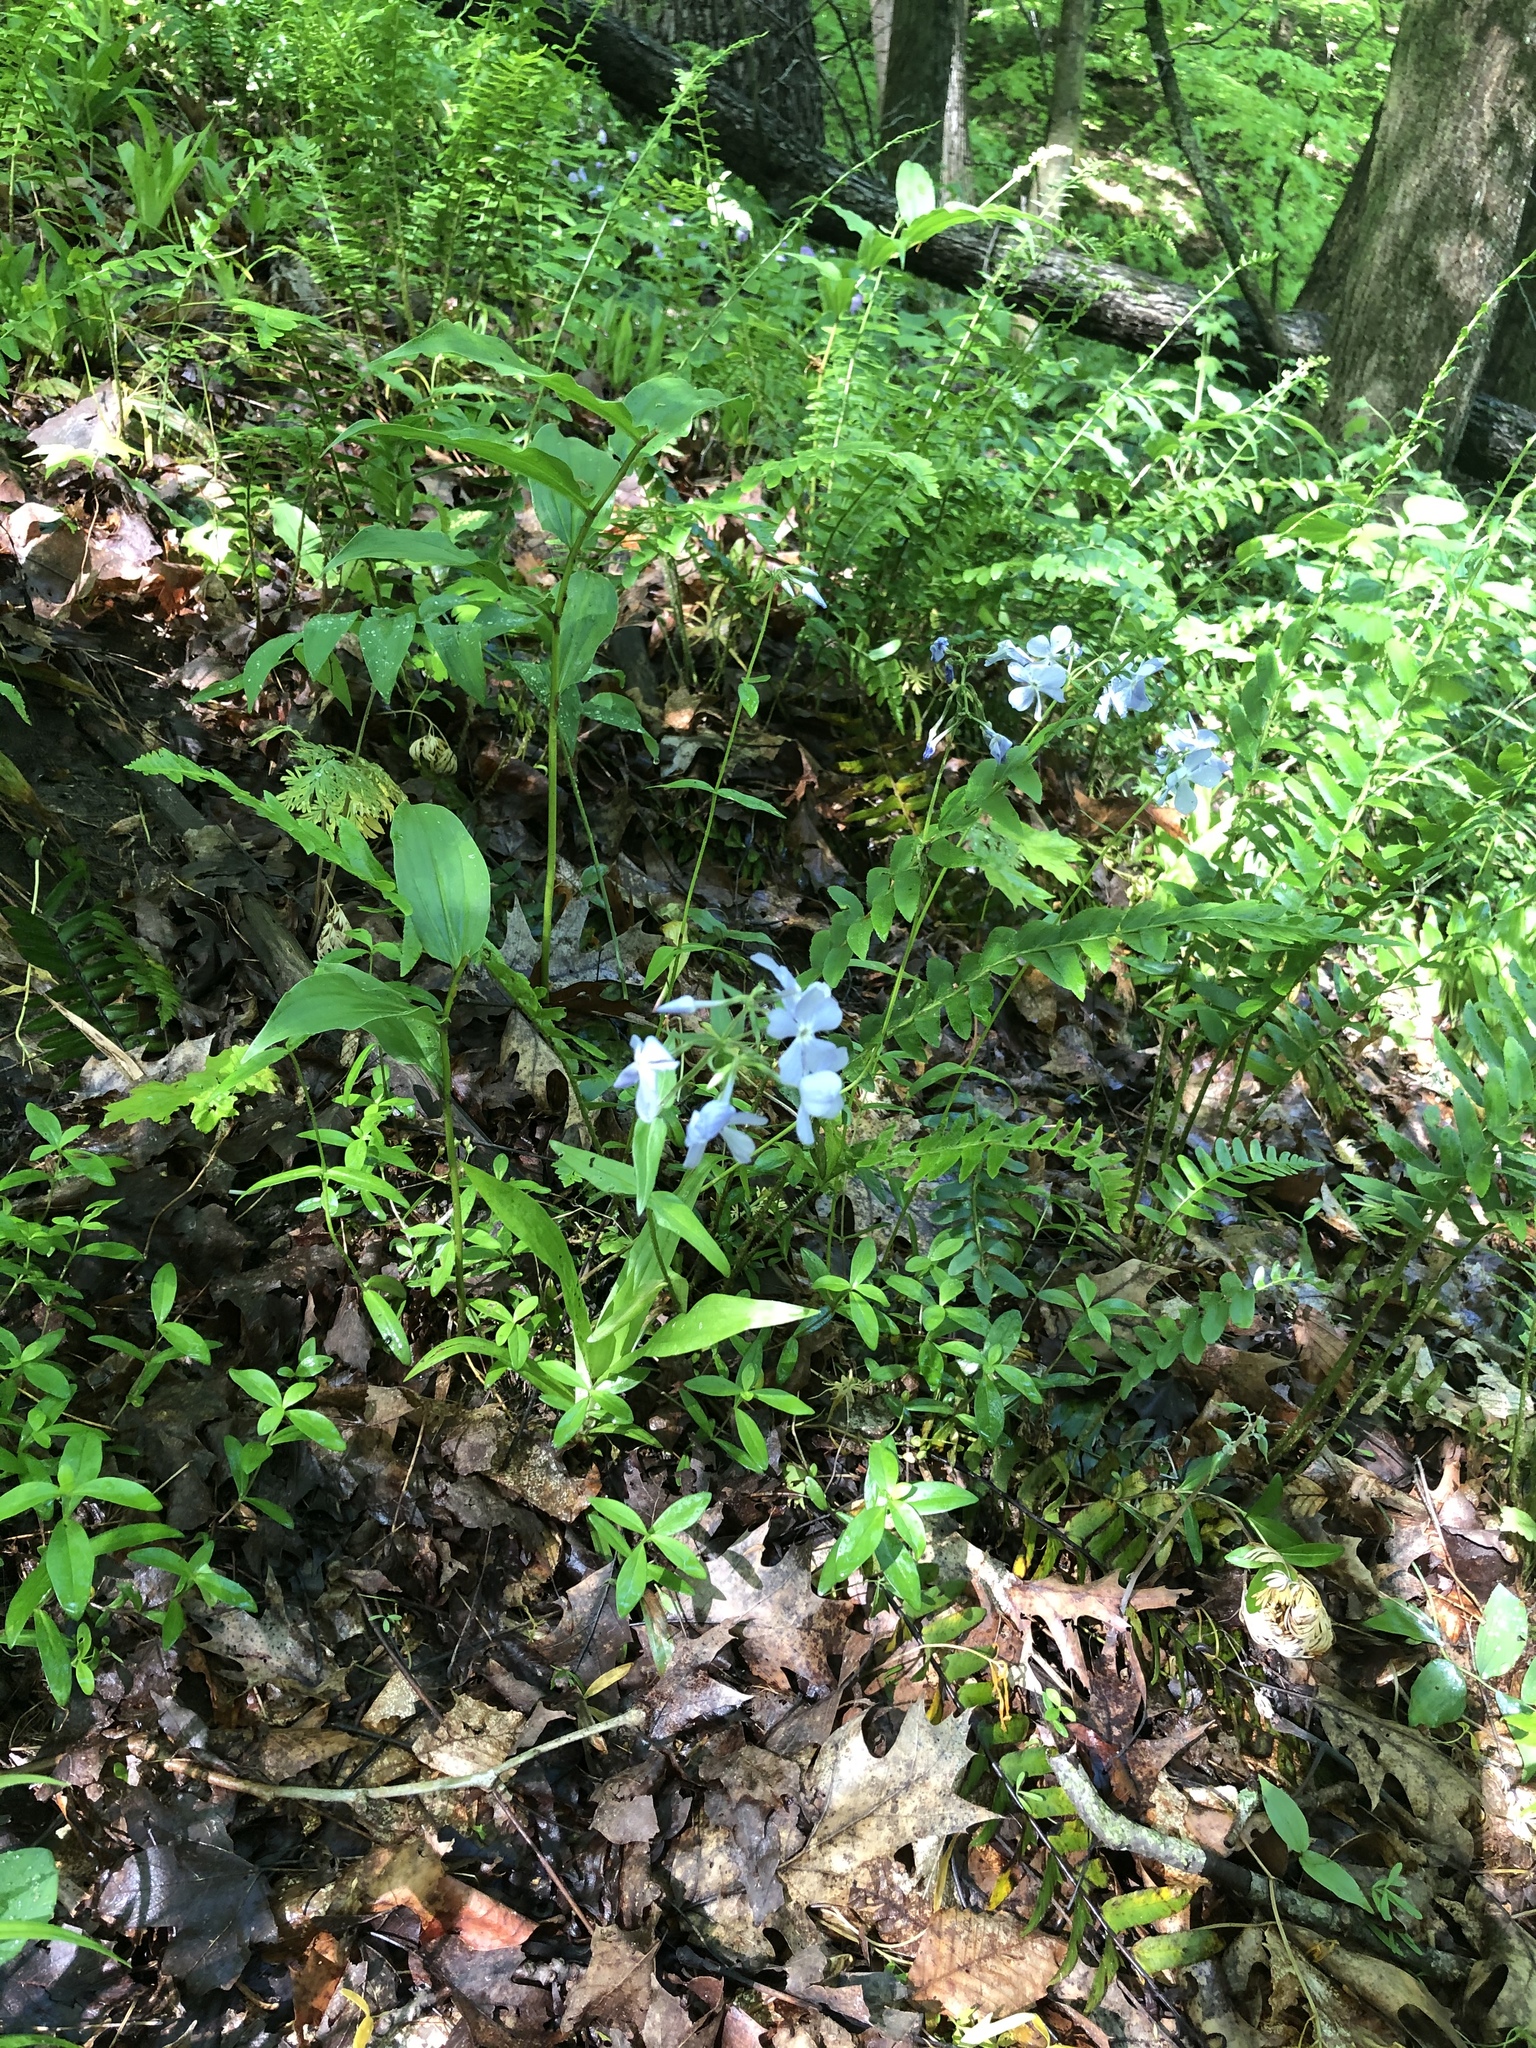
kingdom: Plantae
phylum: Tracheophyta
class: Magnoliopsida
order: Ericales
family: Polemoniaceae
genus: Phlox
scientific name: Phlox divaricata
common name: Blue phlox
